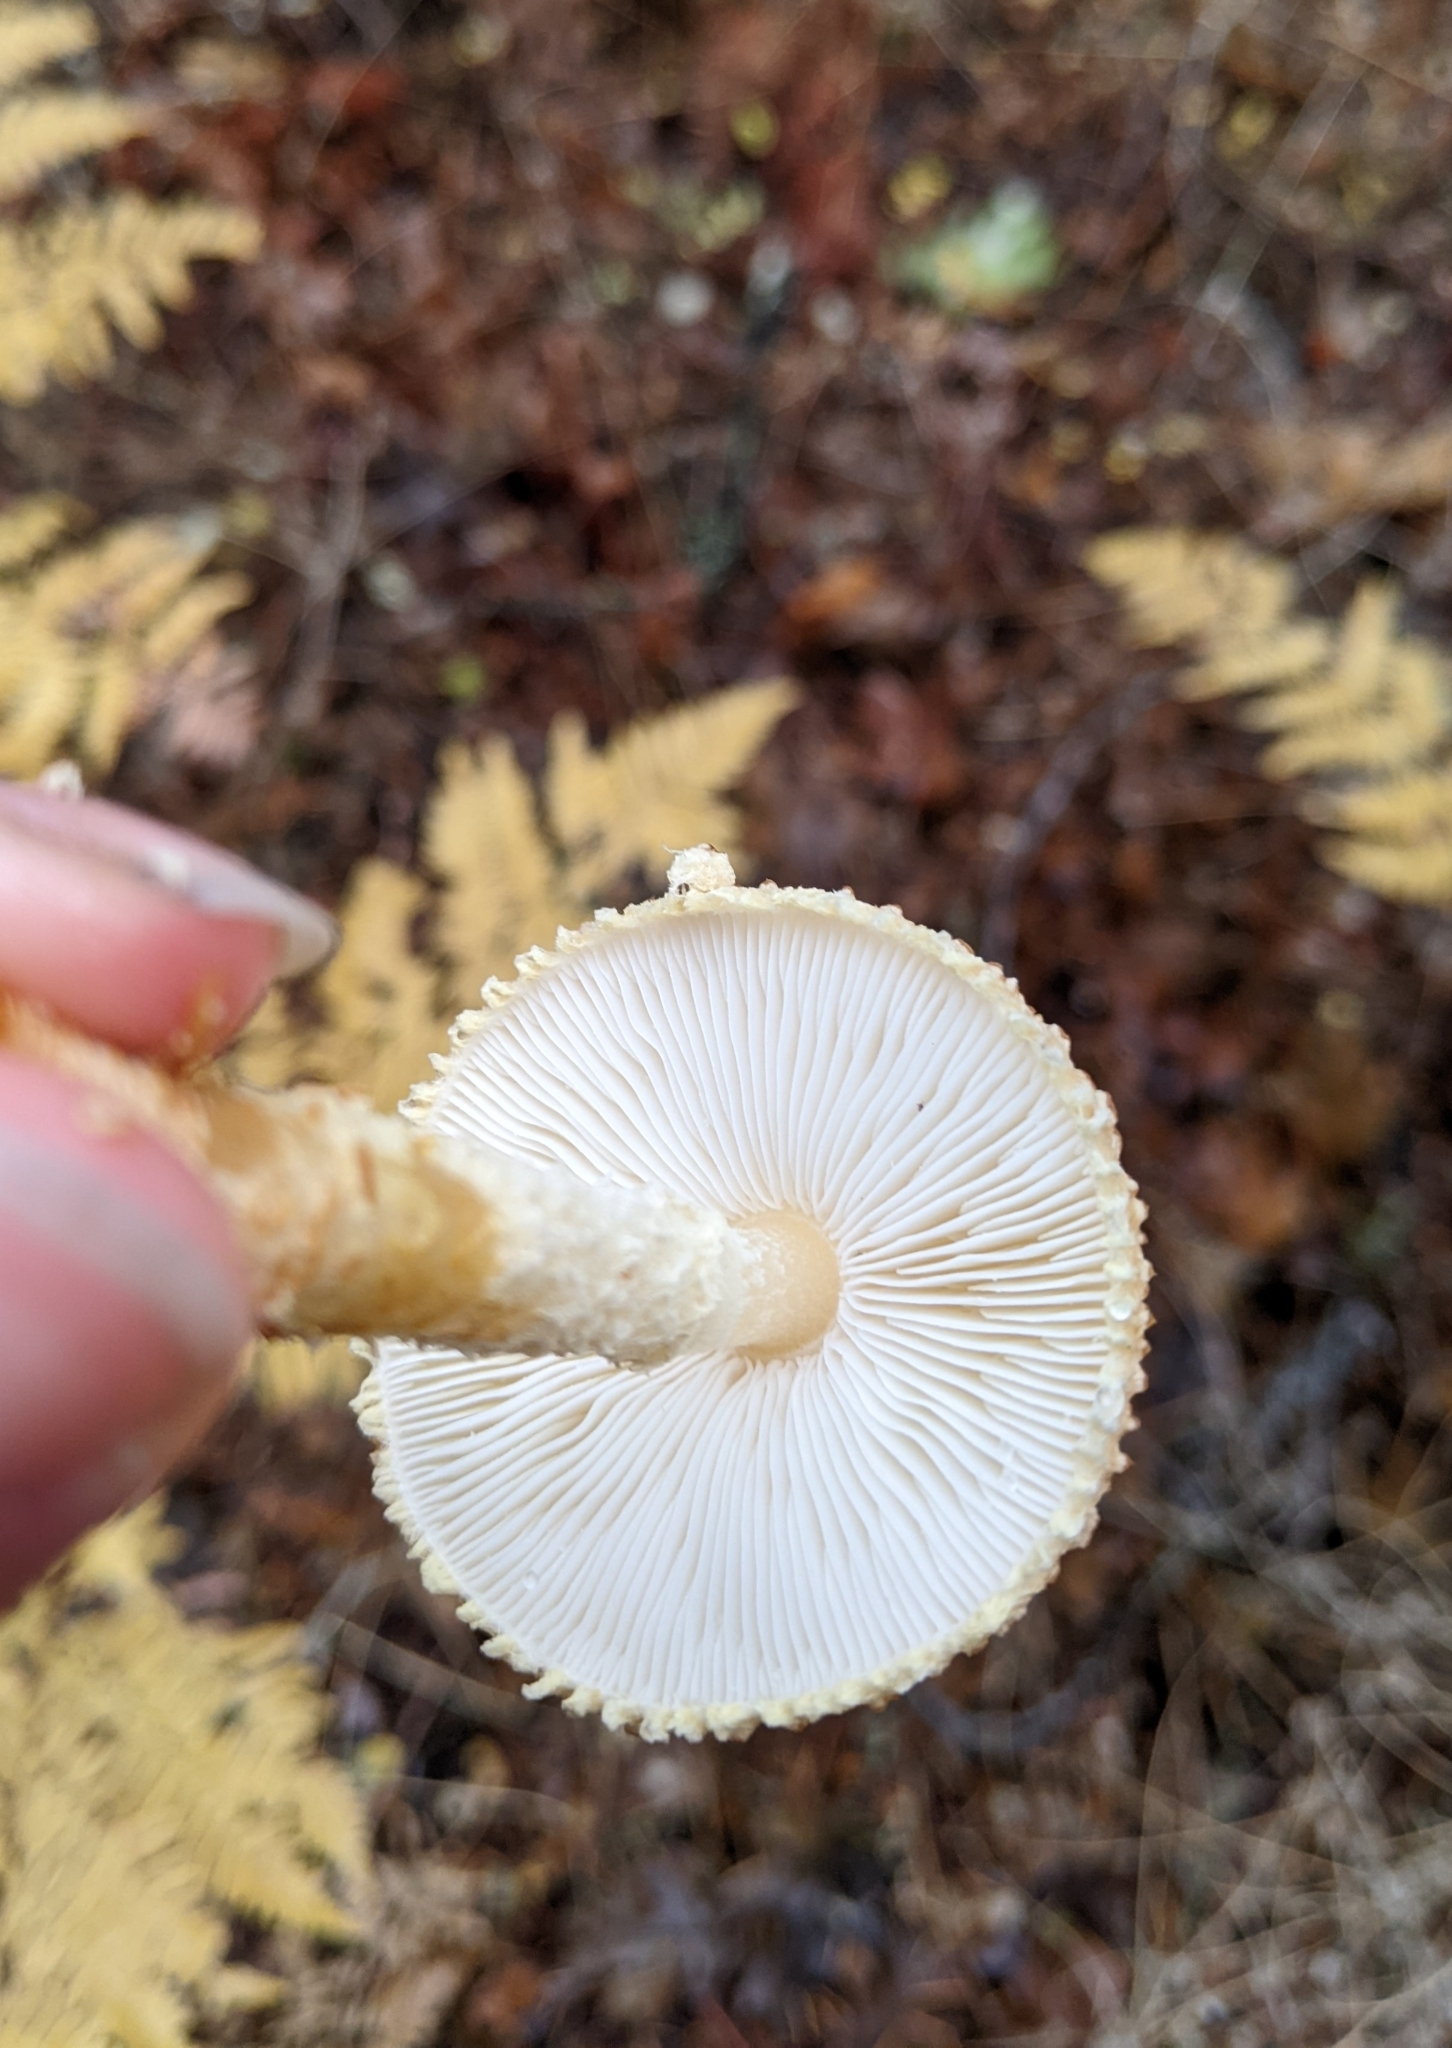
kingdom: Fungi
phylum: Basidiomycota
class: Agaricomycetes
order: Agaricales
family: Agaricaceae
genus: Lepiota
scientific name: Lepiota magnispora
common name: Yellowfoot dapperling
